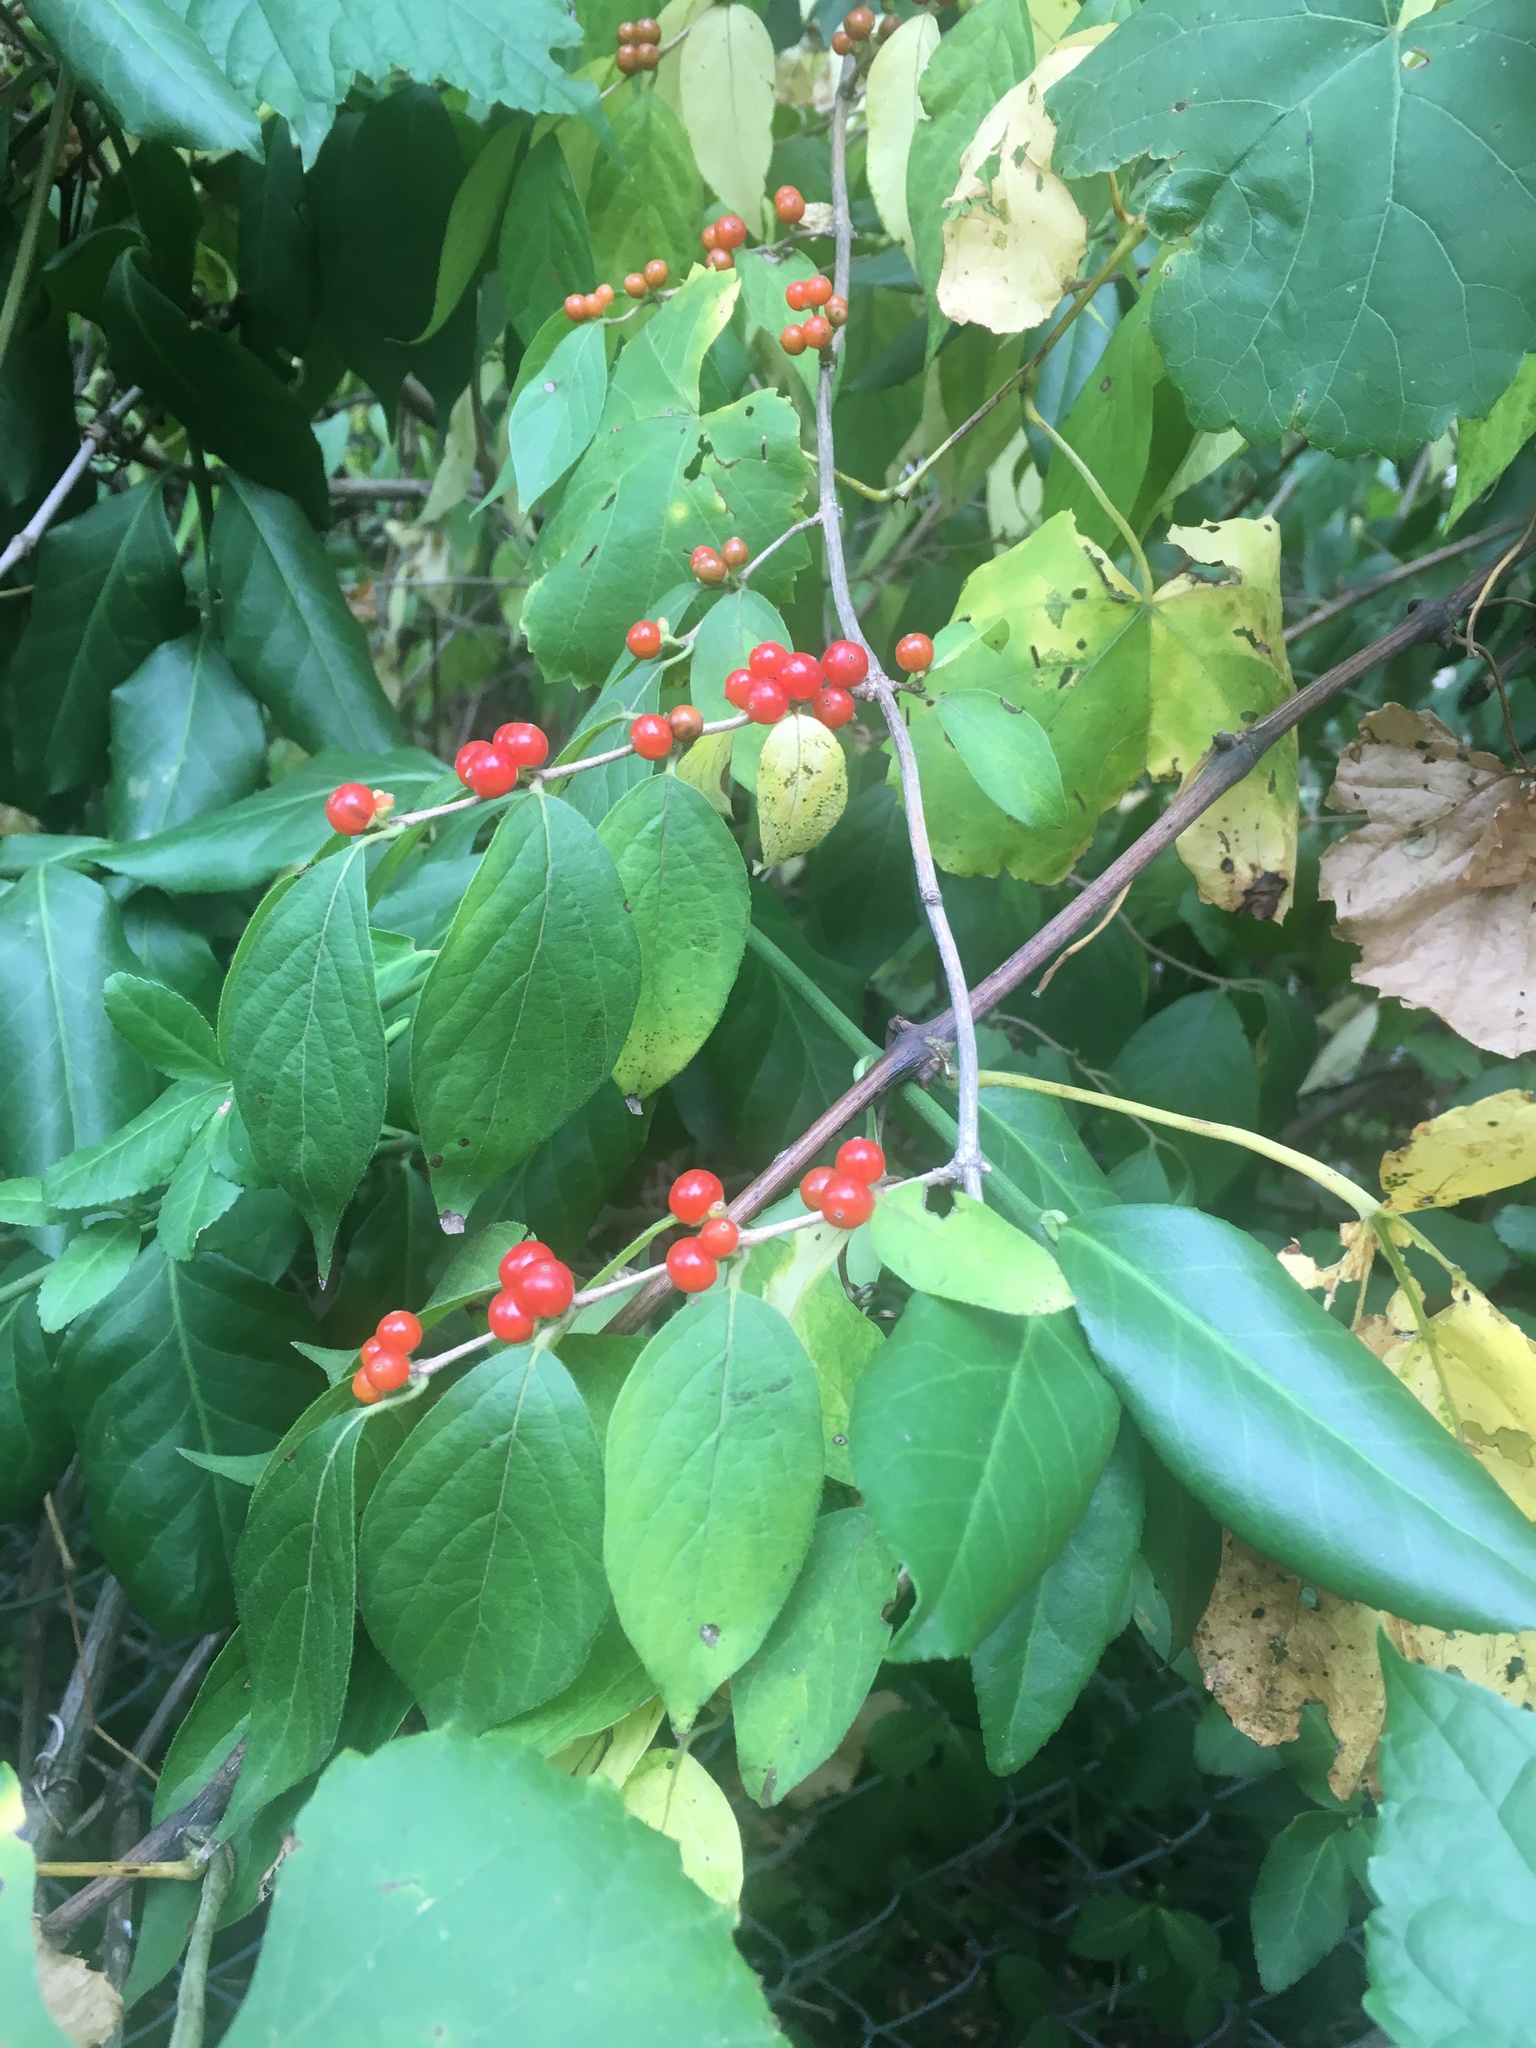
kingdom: Plantae
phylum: Tracheophyta
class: Magnoliopsida
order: Dipsacales
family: Caprifoliaceae
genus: Lonicera
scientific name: Lonicera maackii
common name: Amur honeysuckle
